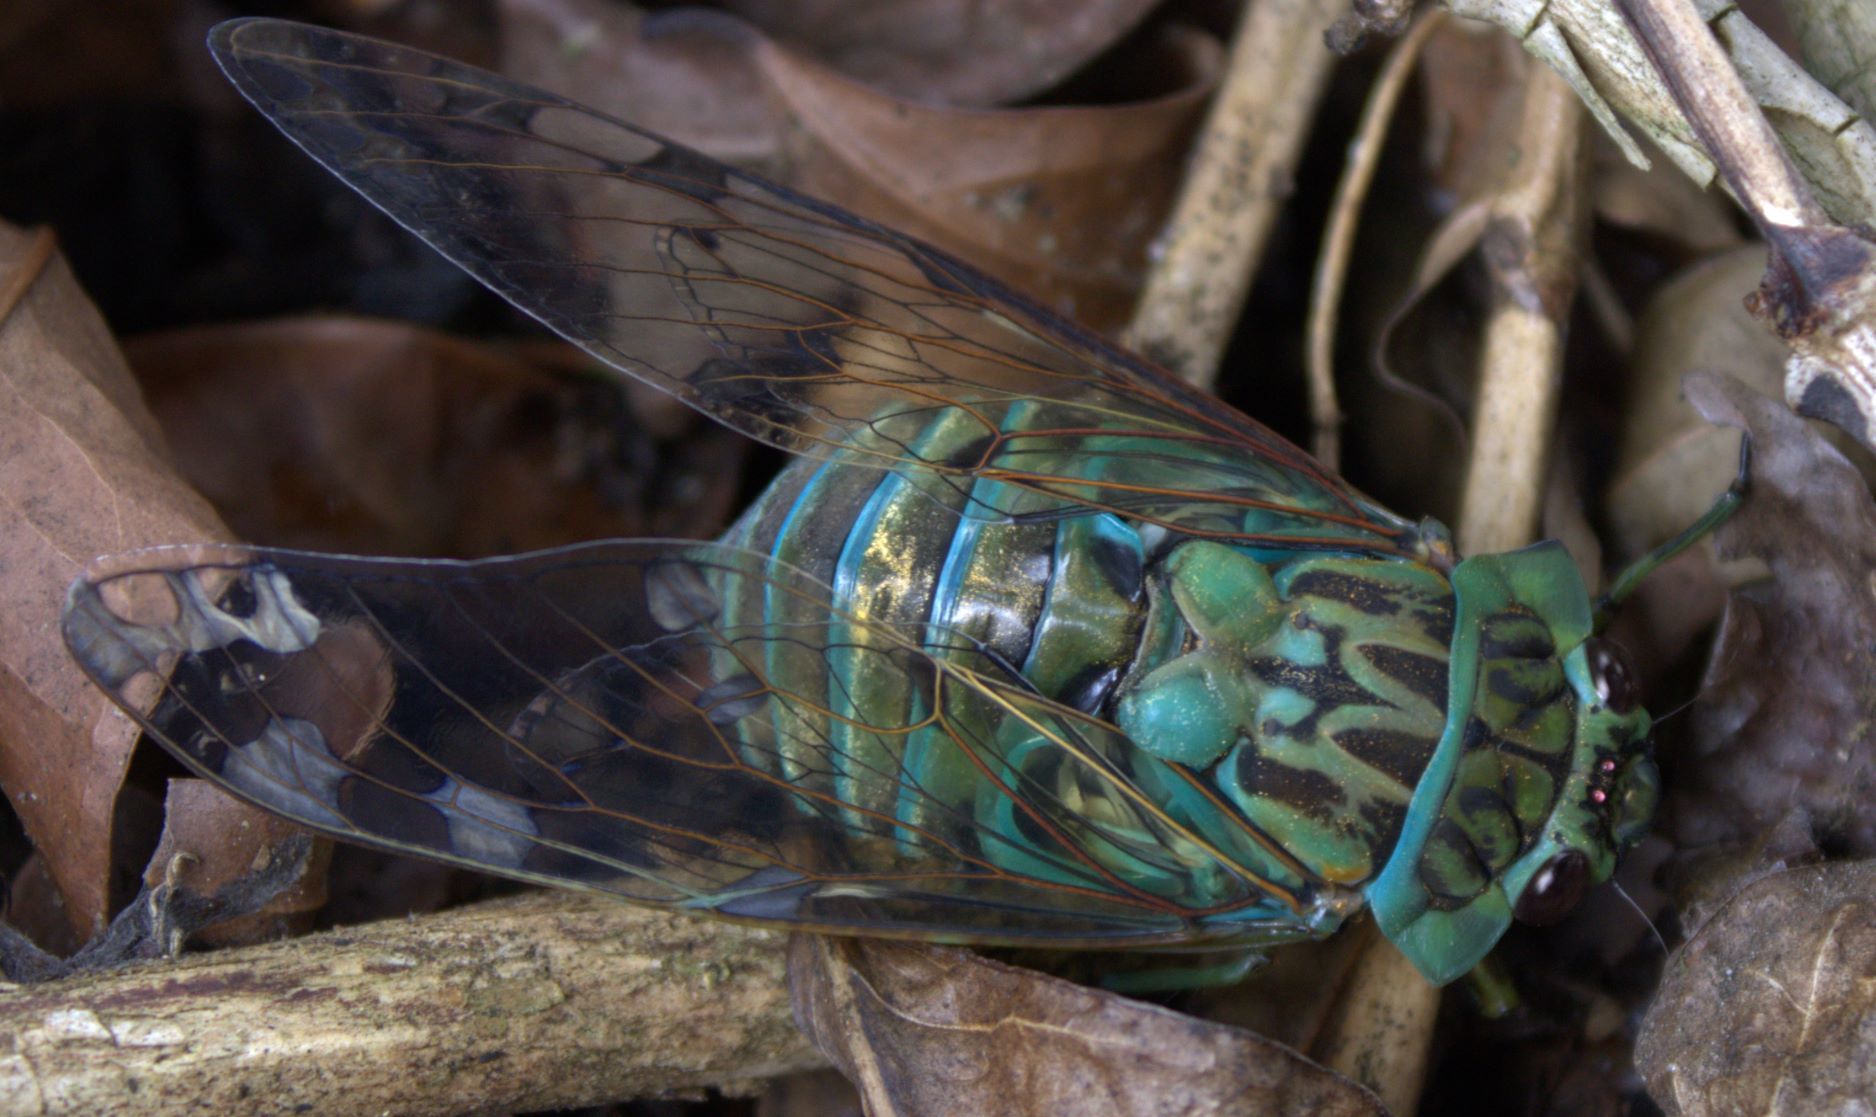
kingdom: Animalia
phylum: Arthropoda
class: Insecta
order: Hemiptera
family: Cicadidae
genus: Zammara
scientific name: Zammara smaragdina
